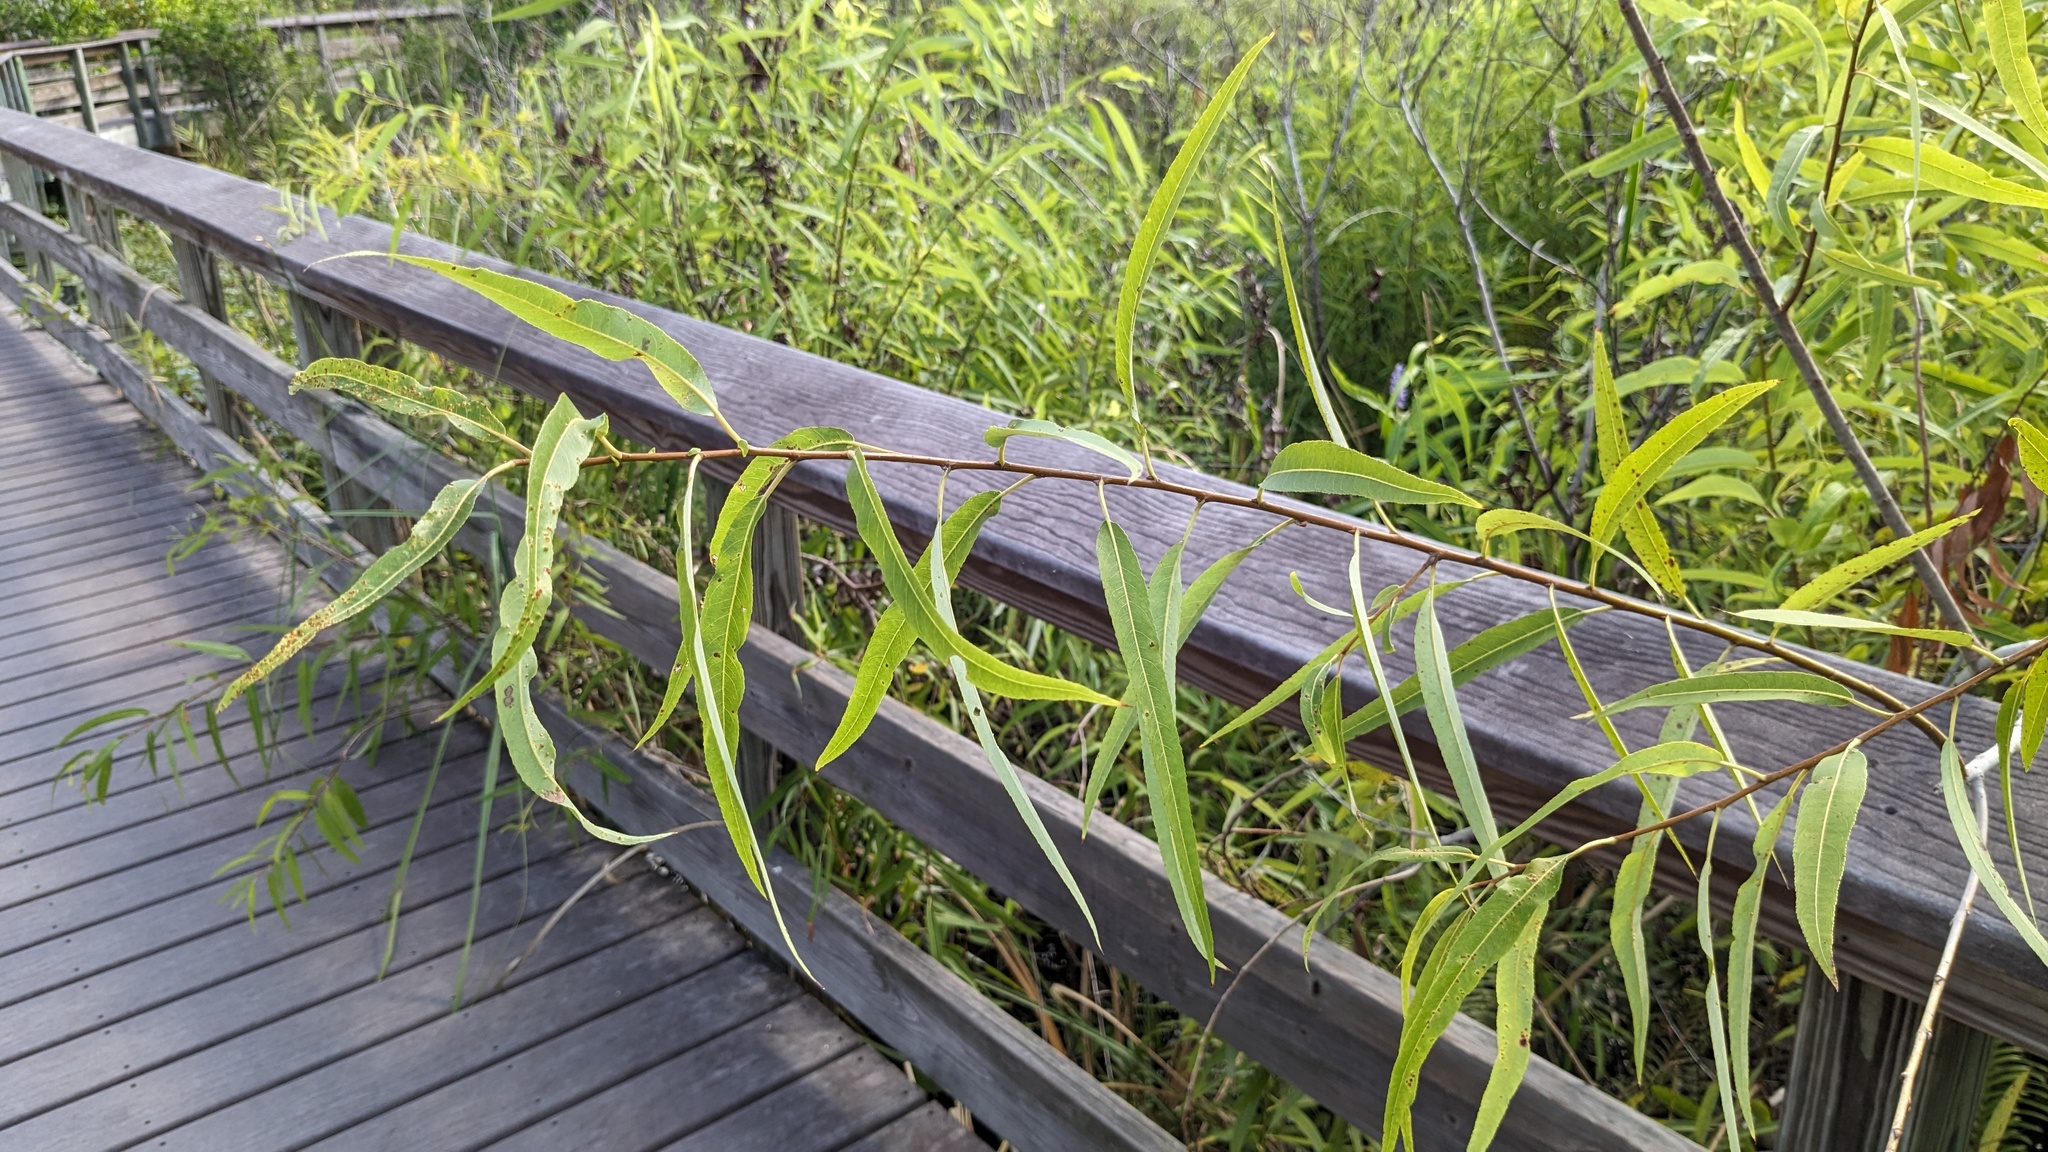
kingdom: Plantae
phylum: Tracheophyta
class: Magnoliopsida
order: Malpighiales
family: Salicaceae
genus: Salix
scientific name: Salix caroliniana
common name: Carolina willow
